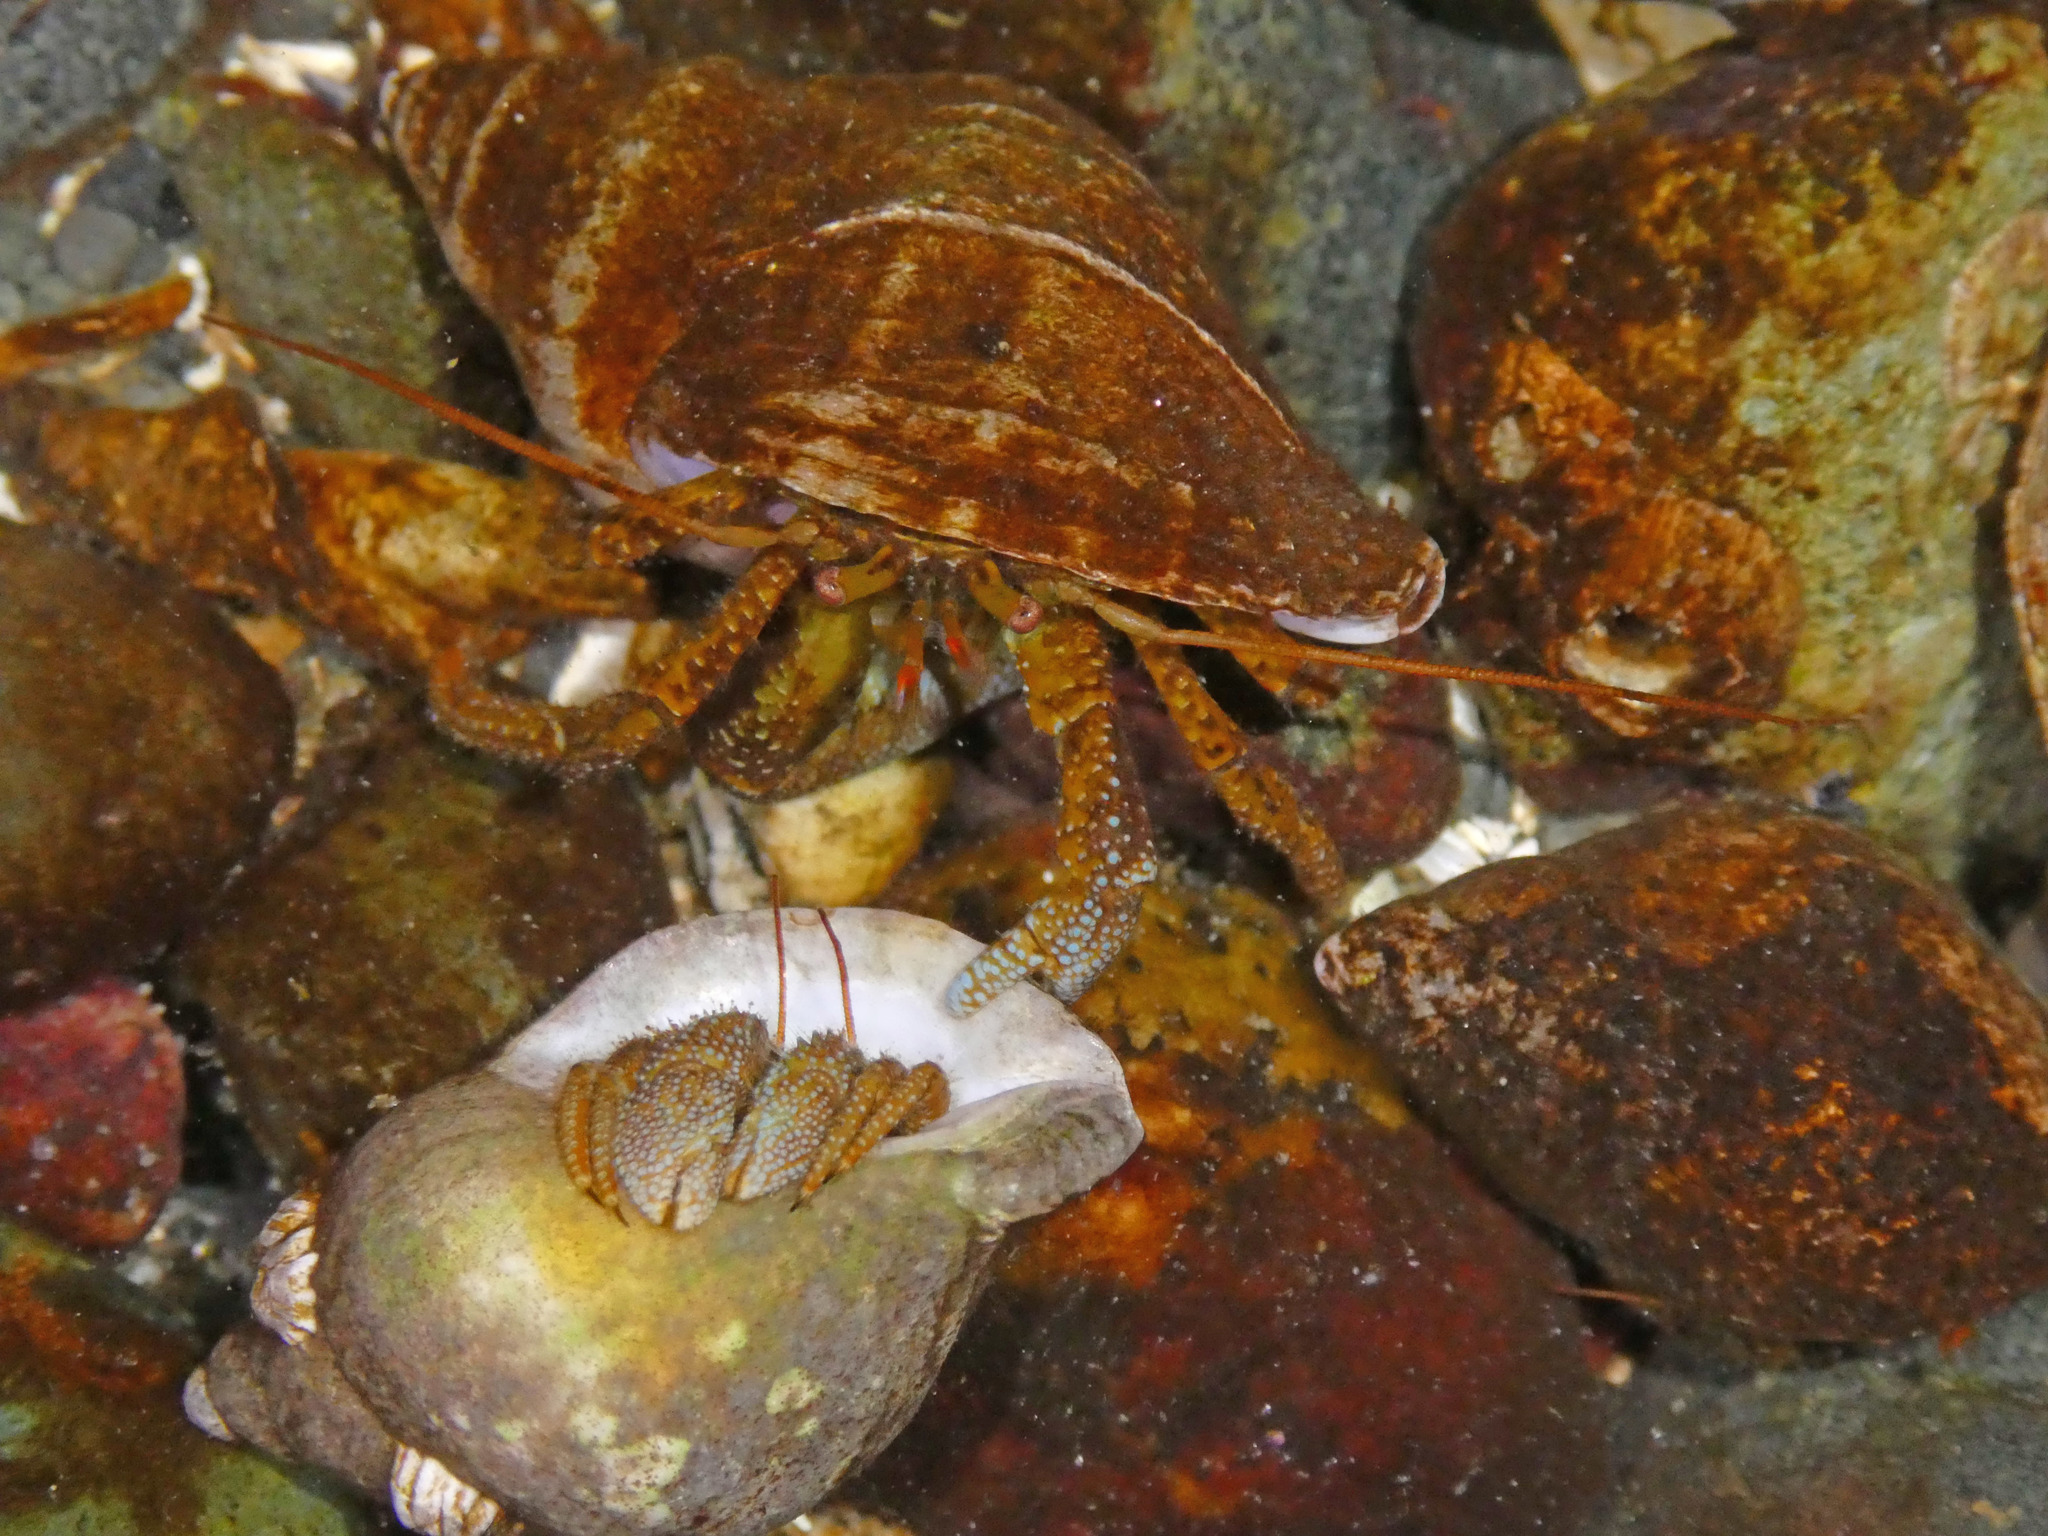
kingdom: Animalia
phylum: Arthropoda
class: Malacostraca
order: Decapoda
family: Paguridae
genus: Pagurus
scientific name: Pagurus granosimanus
